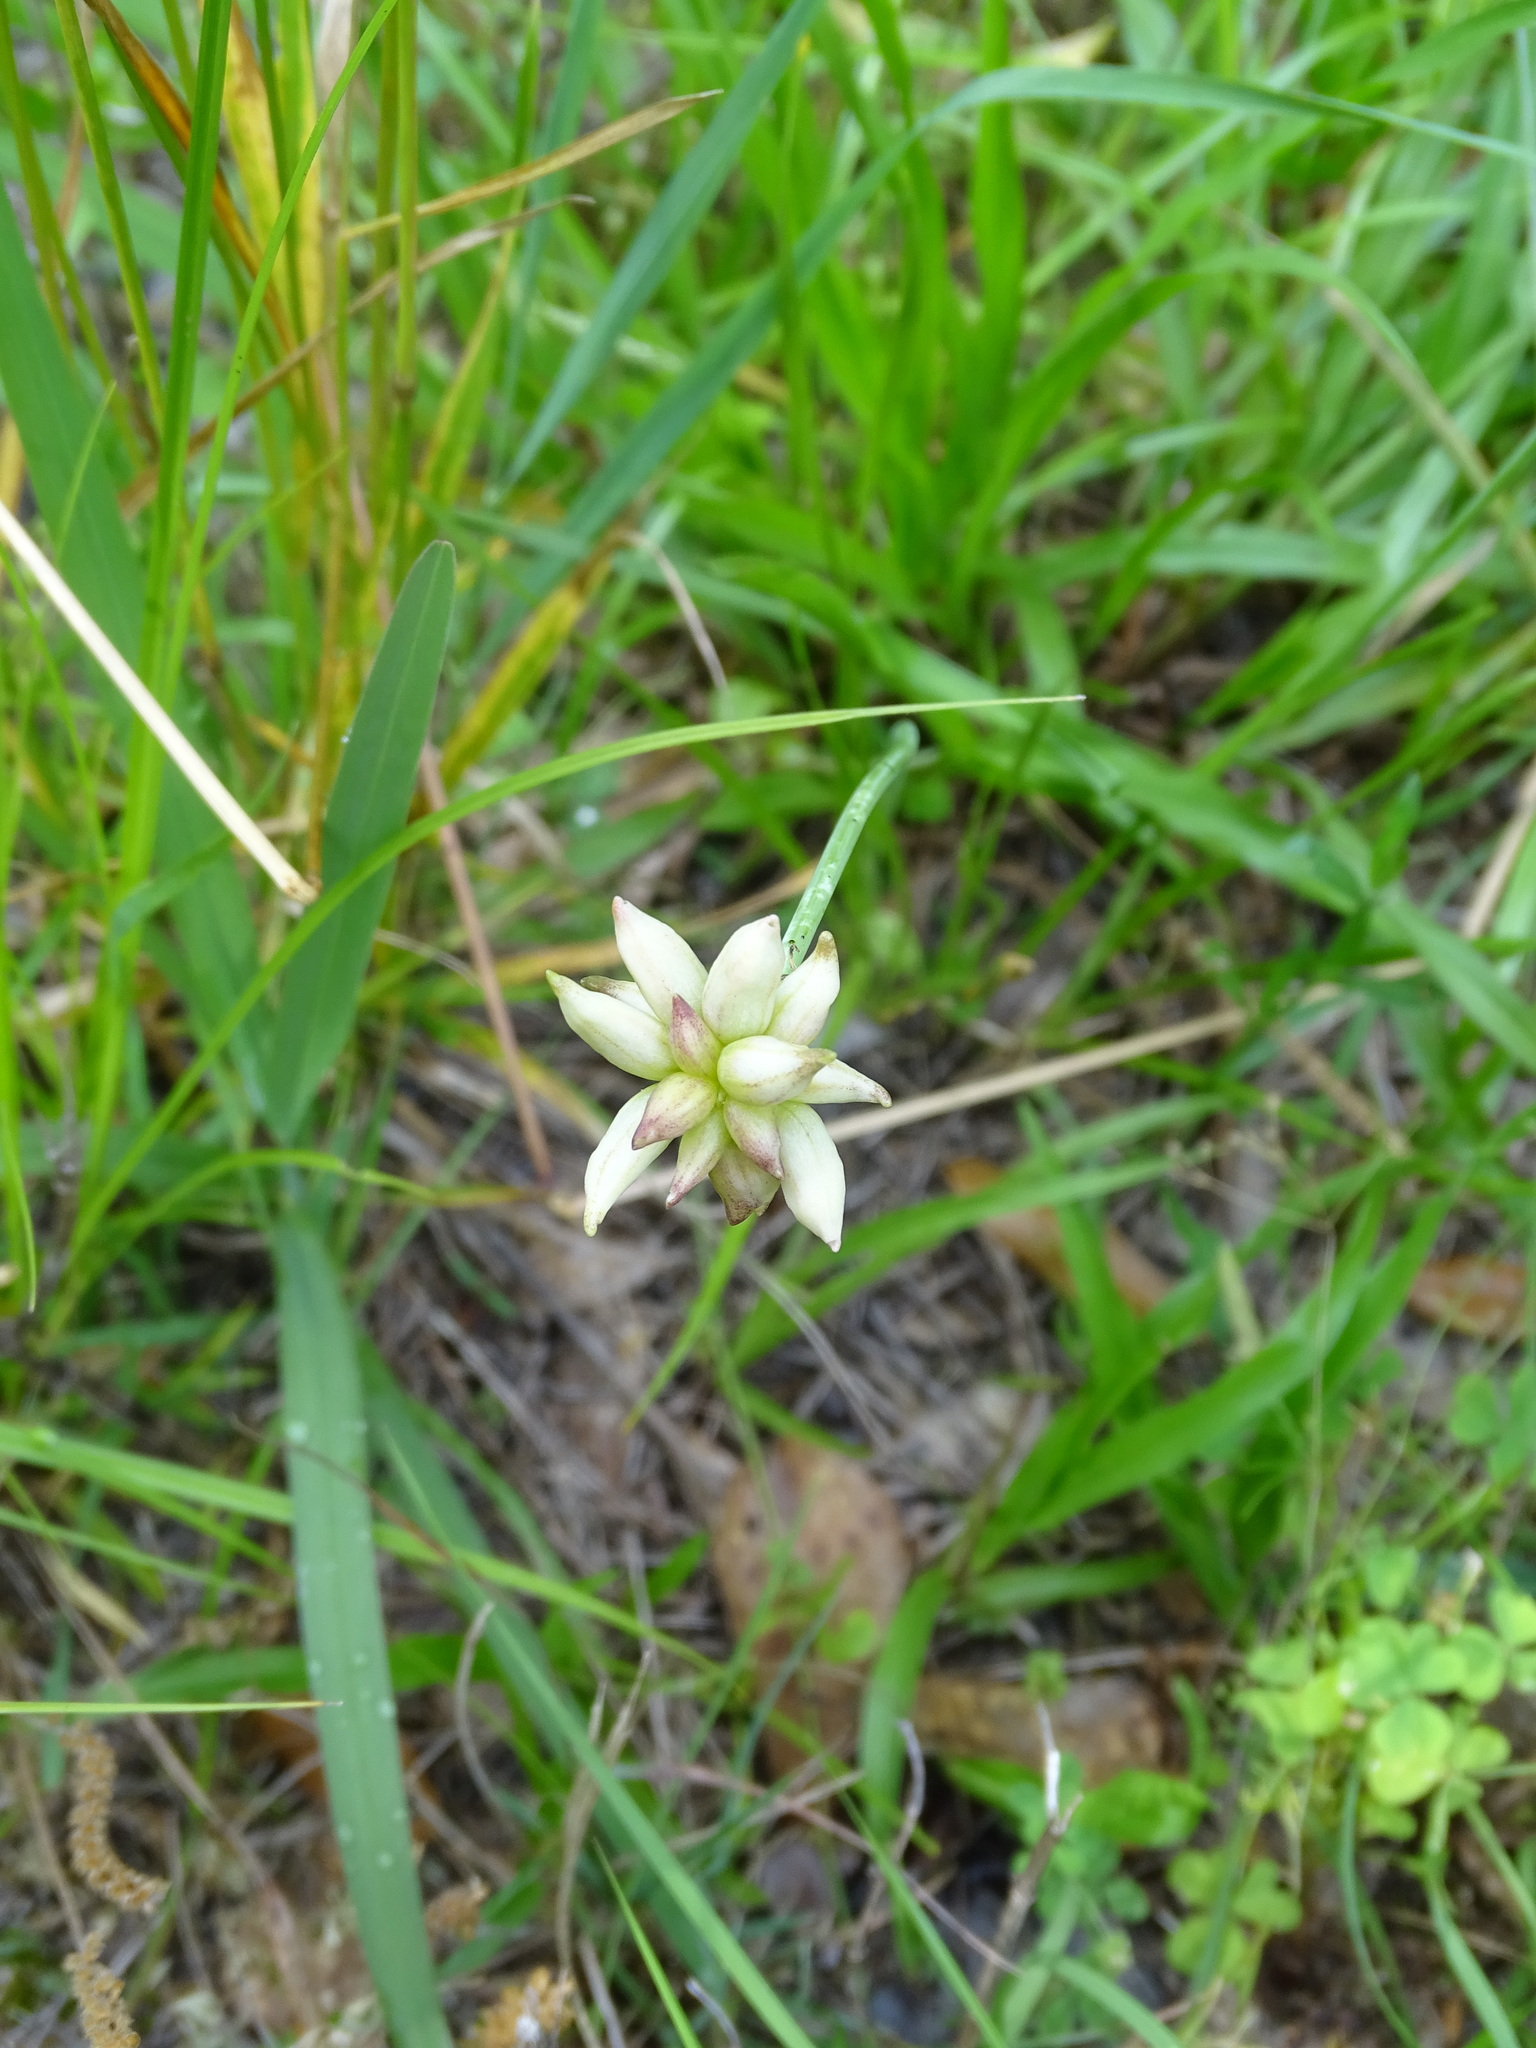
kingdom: Plantae
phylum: Tracheophyta
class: Liliopsida
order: Asparagales
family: Amaryllidaceae
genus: Allium
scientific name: Allium canadense
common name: Meadow garlic
